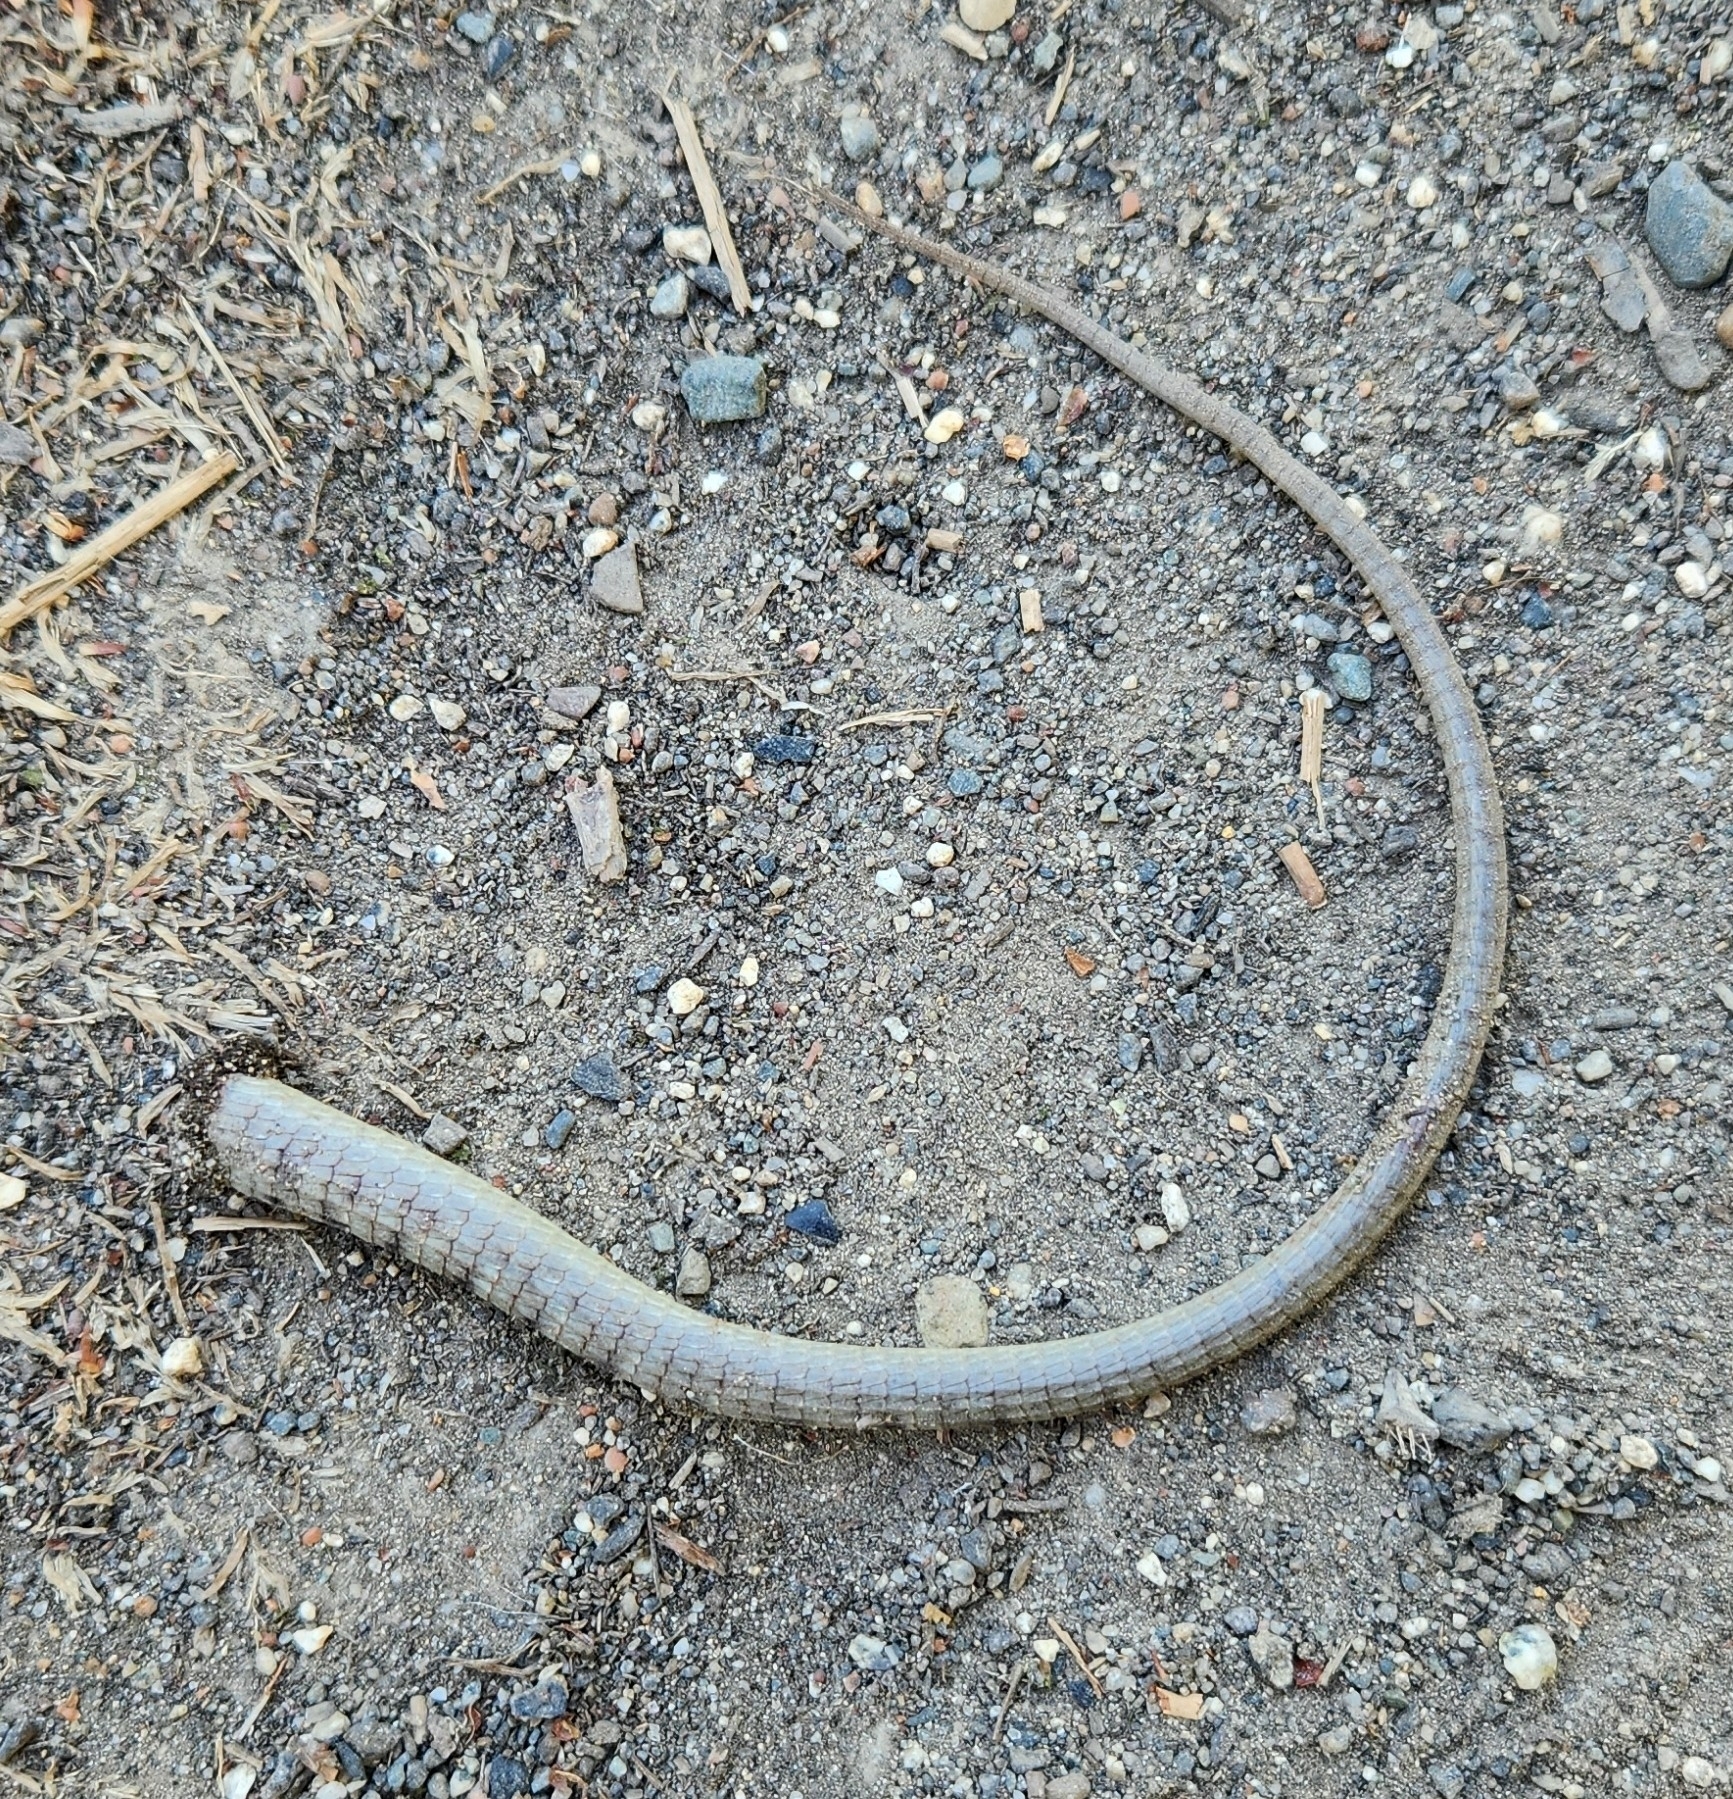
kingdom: Animalia
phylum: Chordata
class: Squamata
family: Anguidae
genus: Elgaria
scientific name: Elgaria multicarinata
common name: Southern alligator lizard
